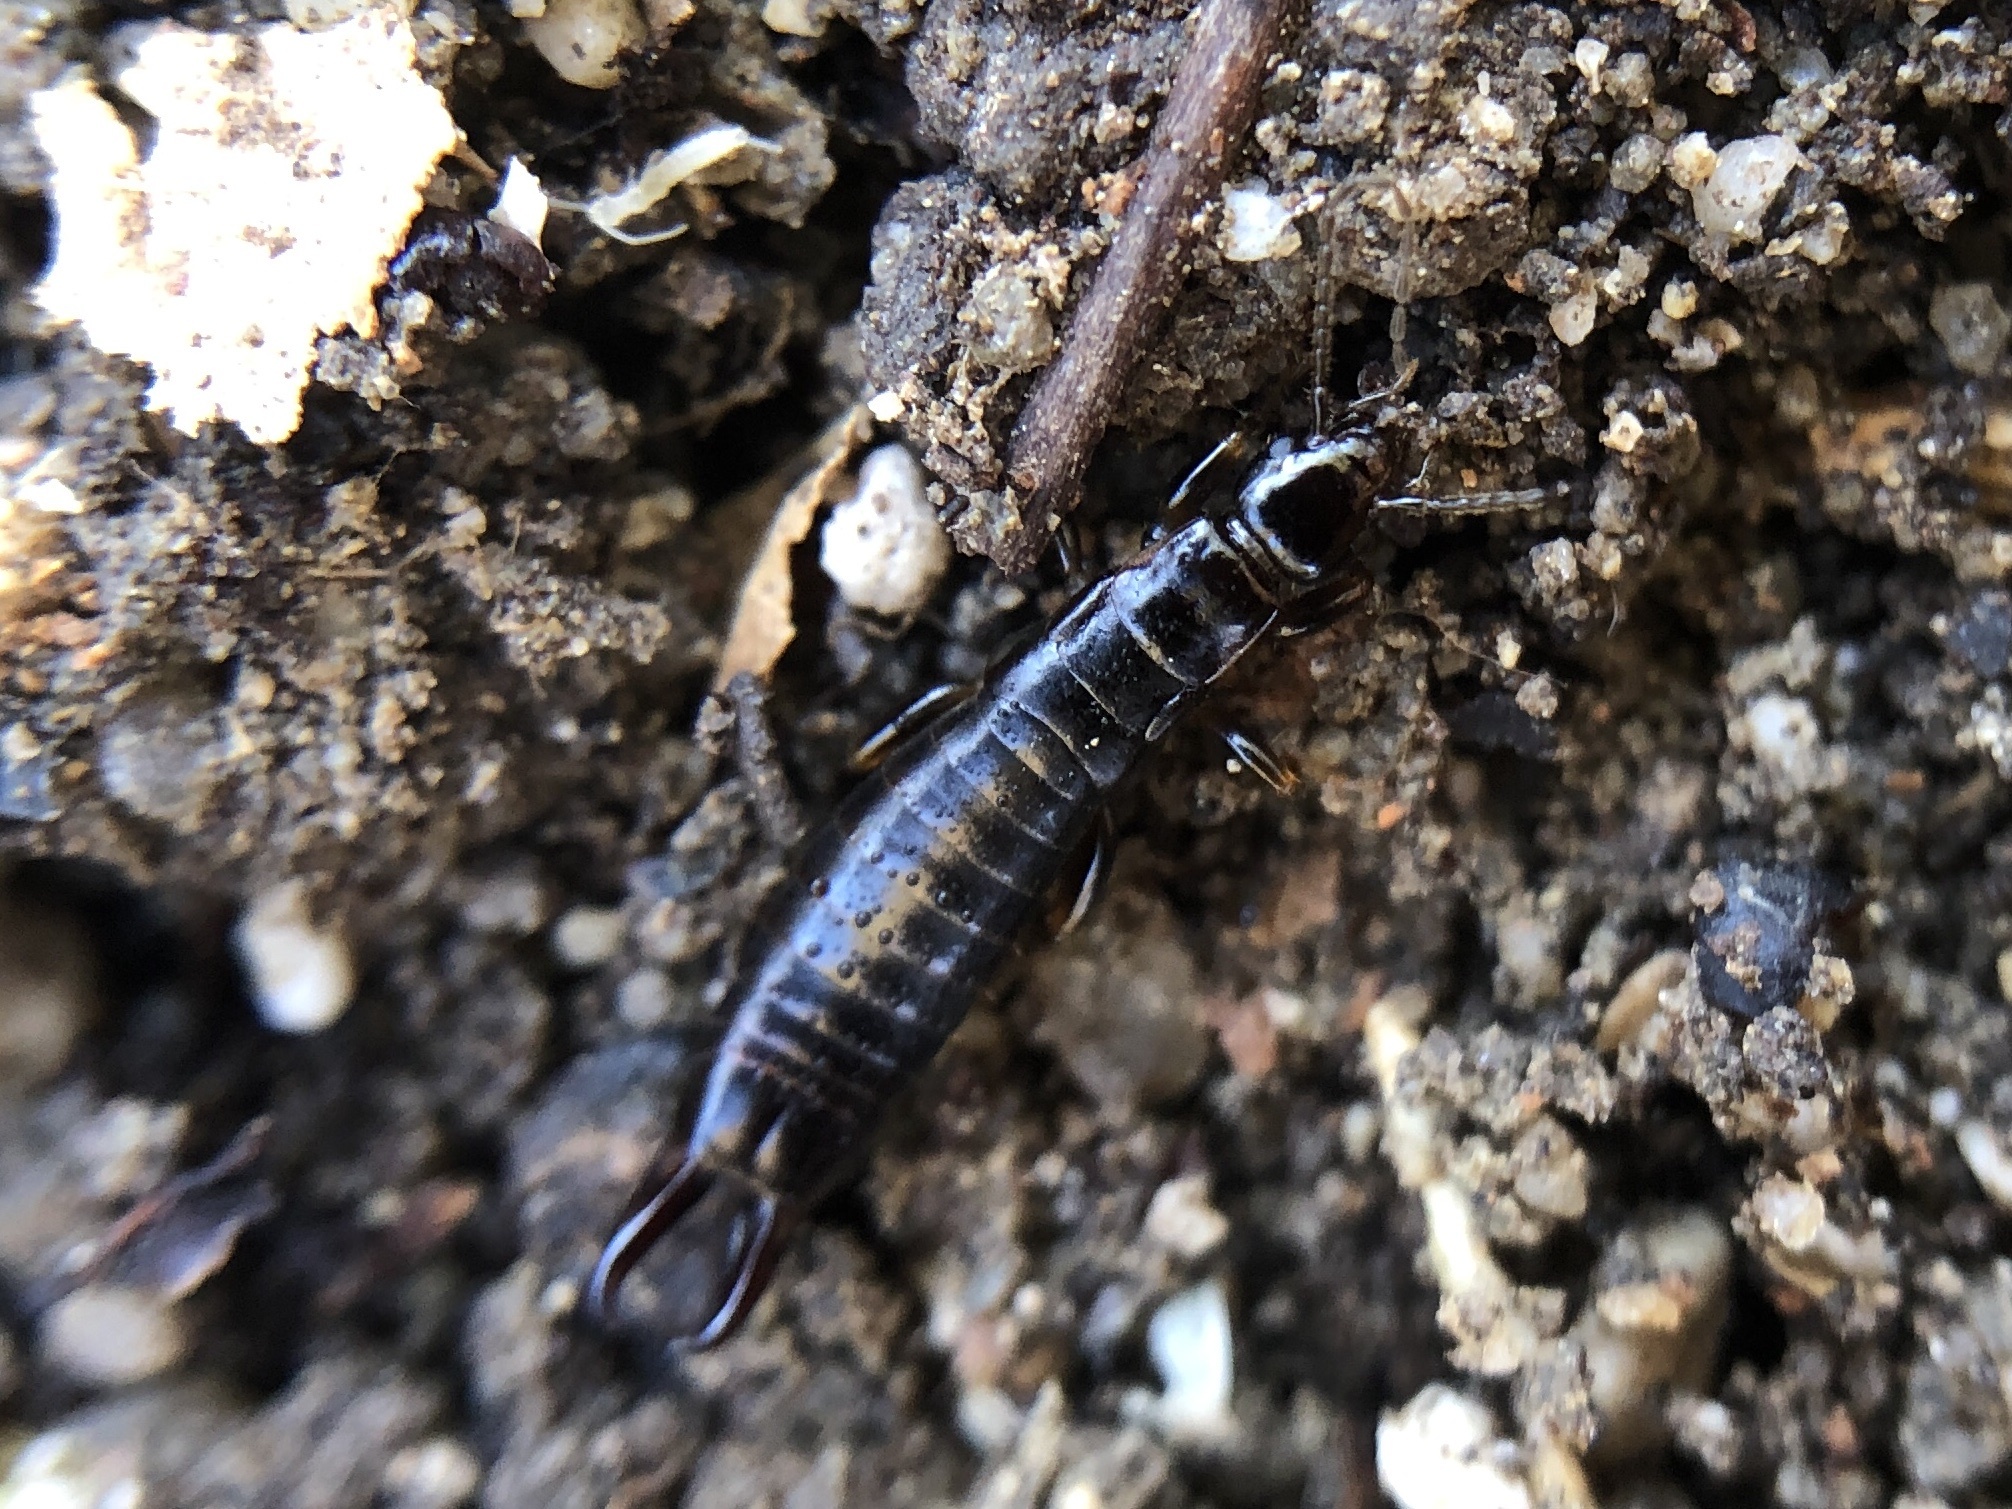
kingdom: Animalia
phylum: Arthropoda
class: Insecta
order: Dermaptera
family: Anisolabididae
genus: Euborellia
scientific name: Euborellia moesta
